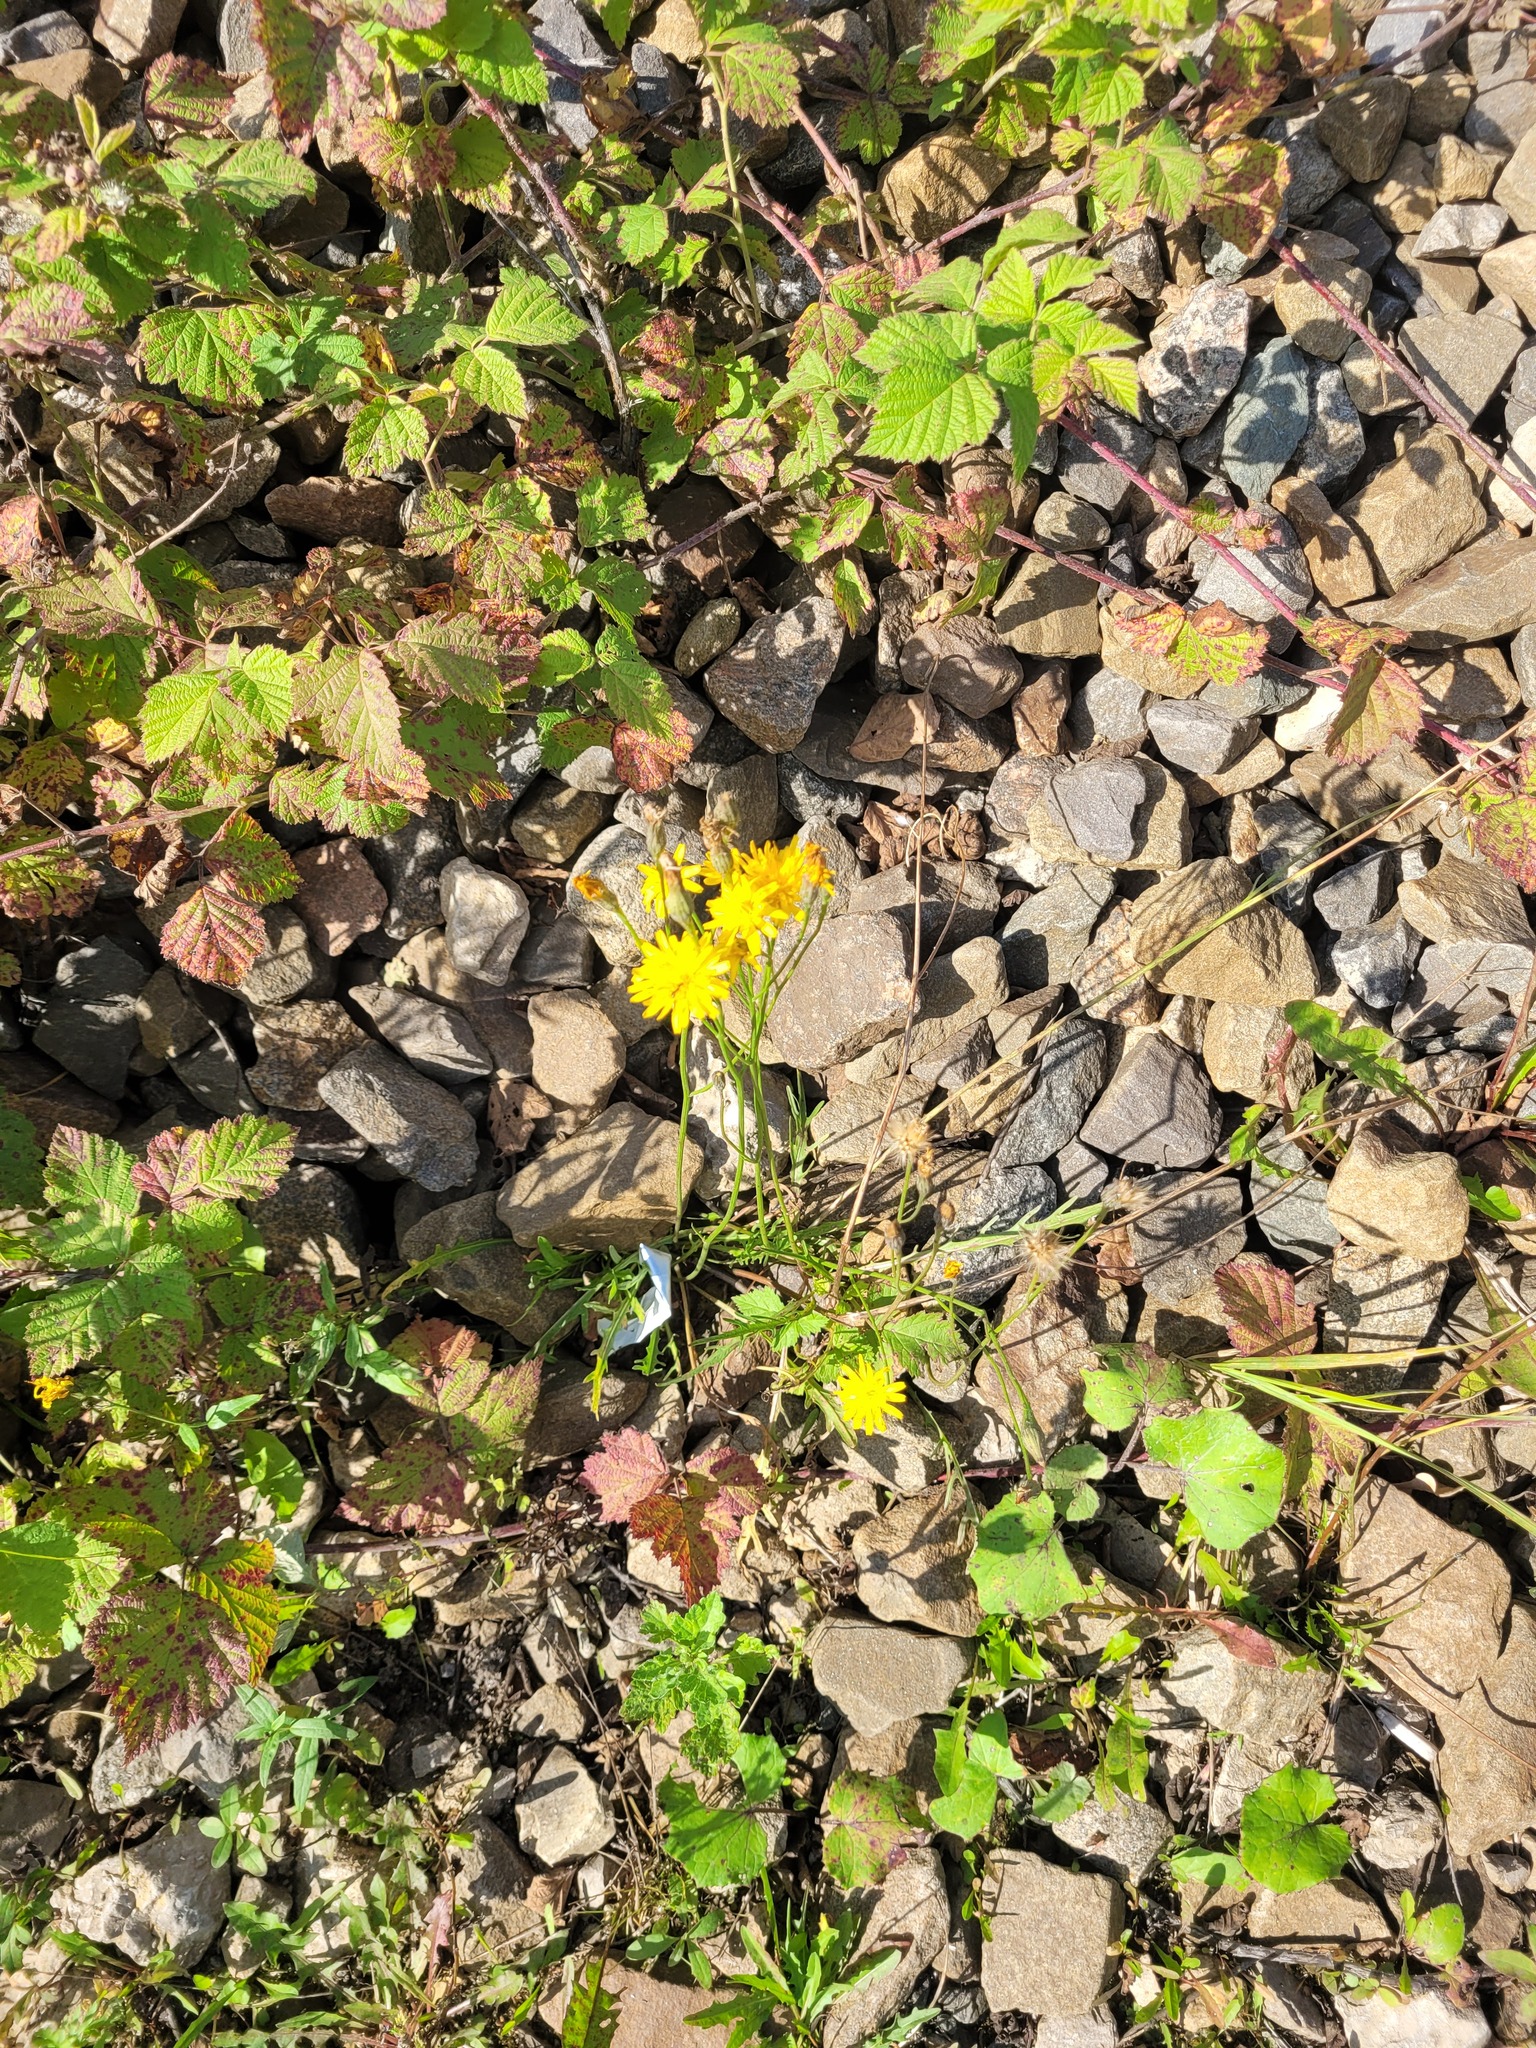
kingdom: Plantae
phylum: Tracheophyta
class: Magnoliopsida
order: Asterales
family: Asteraceae
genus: Scorzoneroides
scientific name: Scorzoneroides autumnalis
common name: Autumn hawkbit
